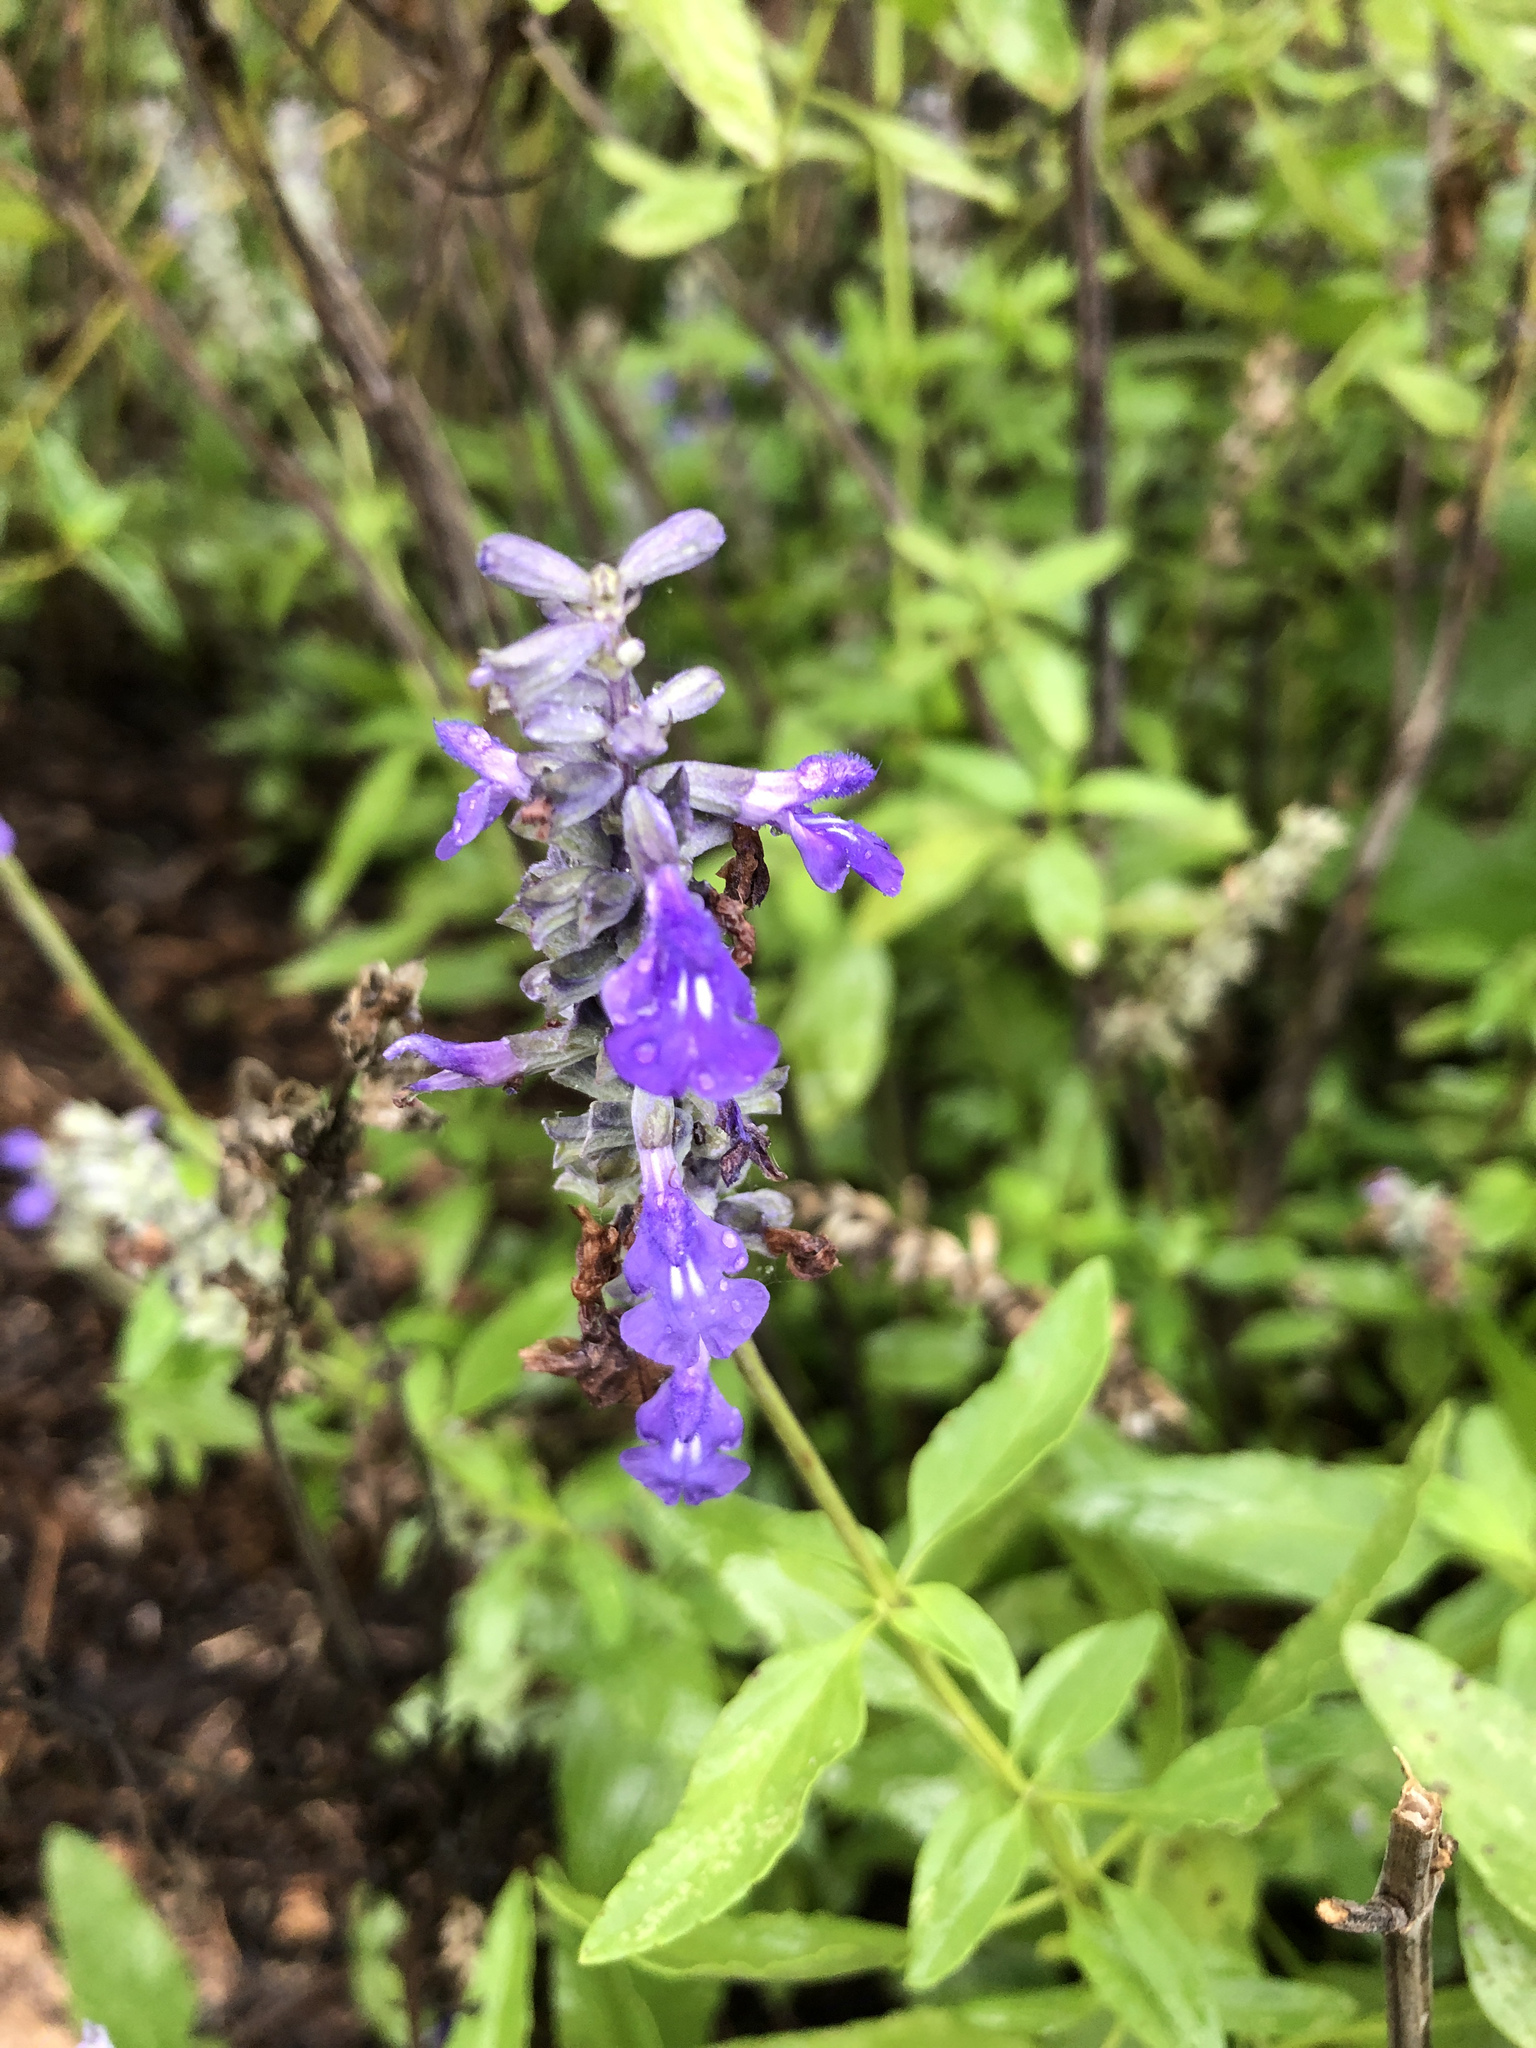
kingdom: Plantae
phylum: Tracheophyta
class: Magnoliopsida
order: Lamiales
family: Lamiaceae
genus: Salvia
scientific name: Salvia farinacea
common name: Mealy sage
